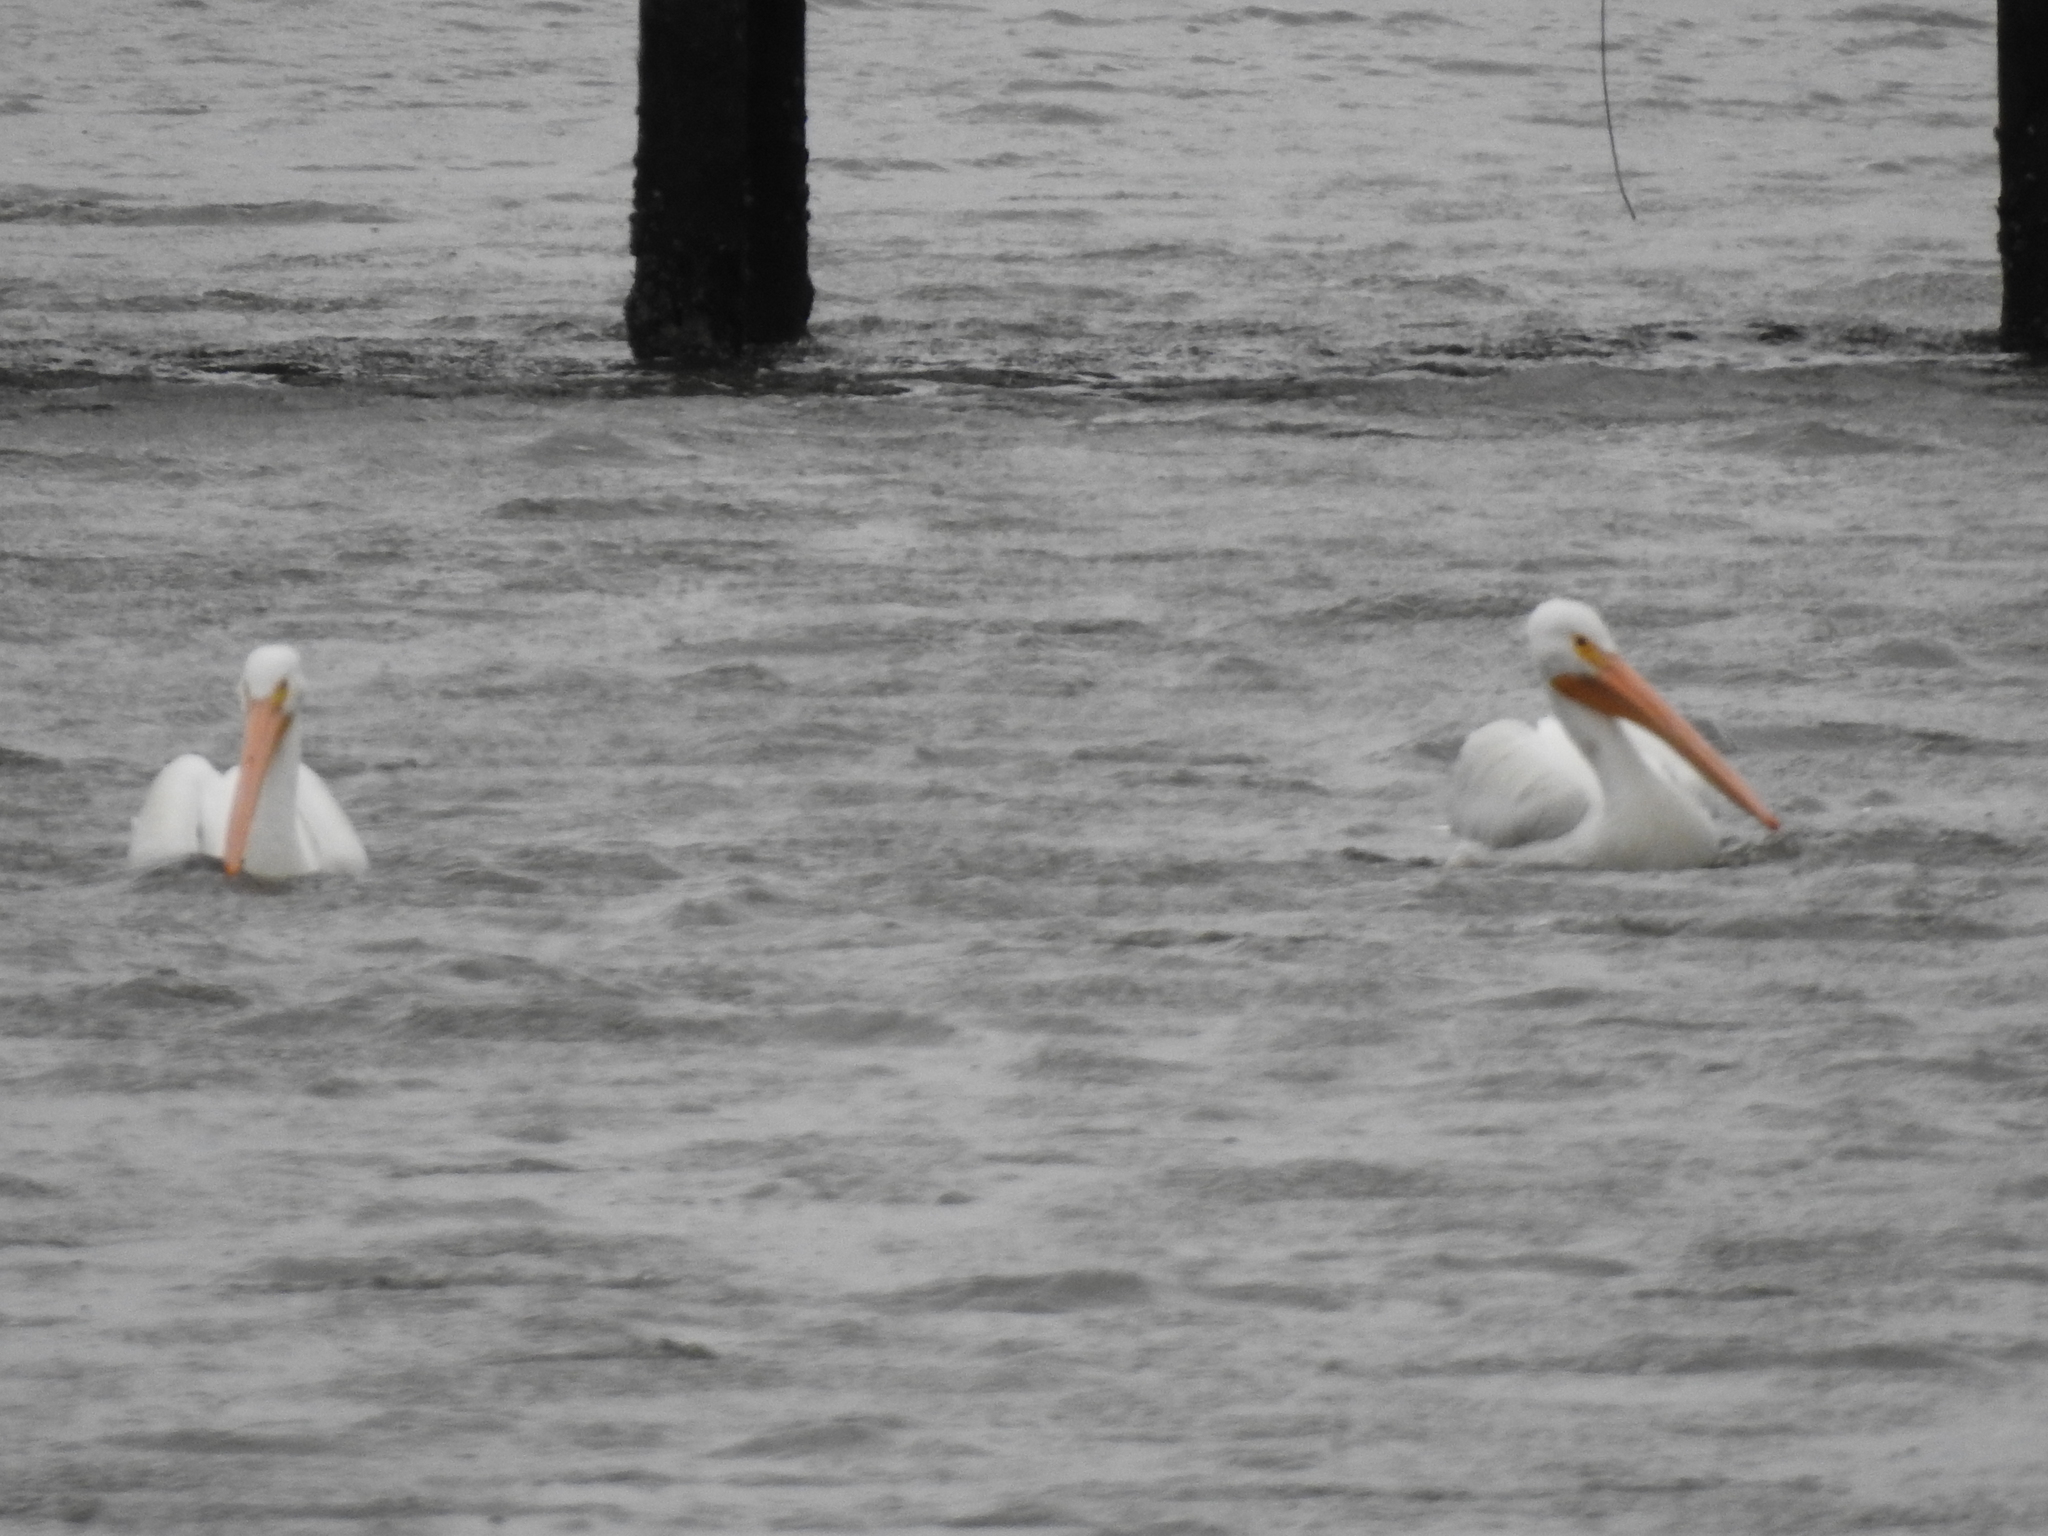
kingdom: Animalia
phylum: Chordata
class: Aves
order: Pelecaniformes
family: Pelecanidae
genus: Pelecanus
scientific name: Pelecanus erythrorhynchos
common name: American white pelican
